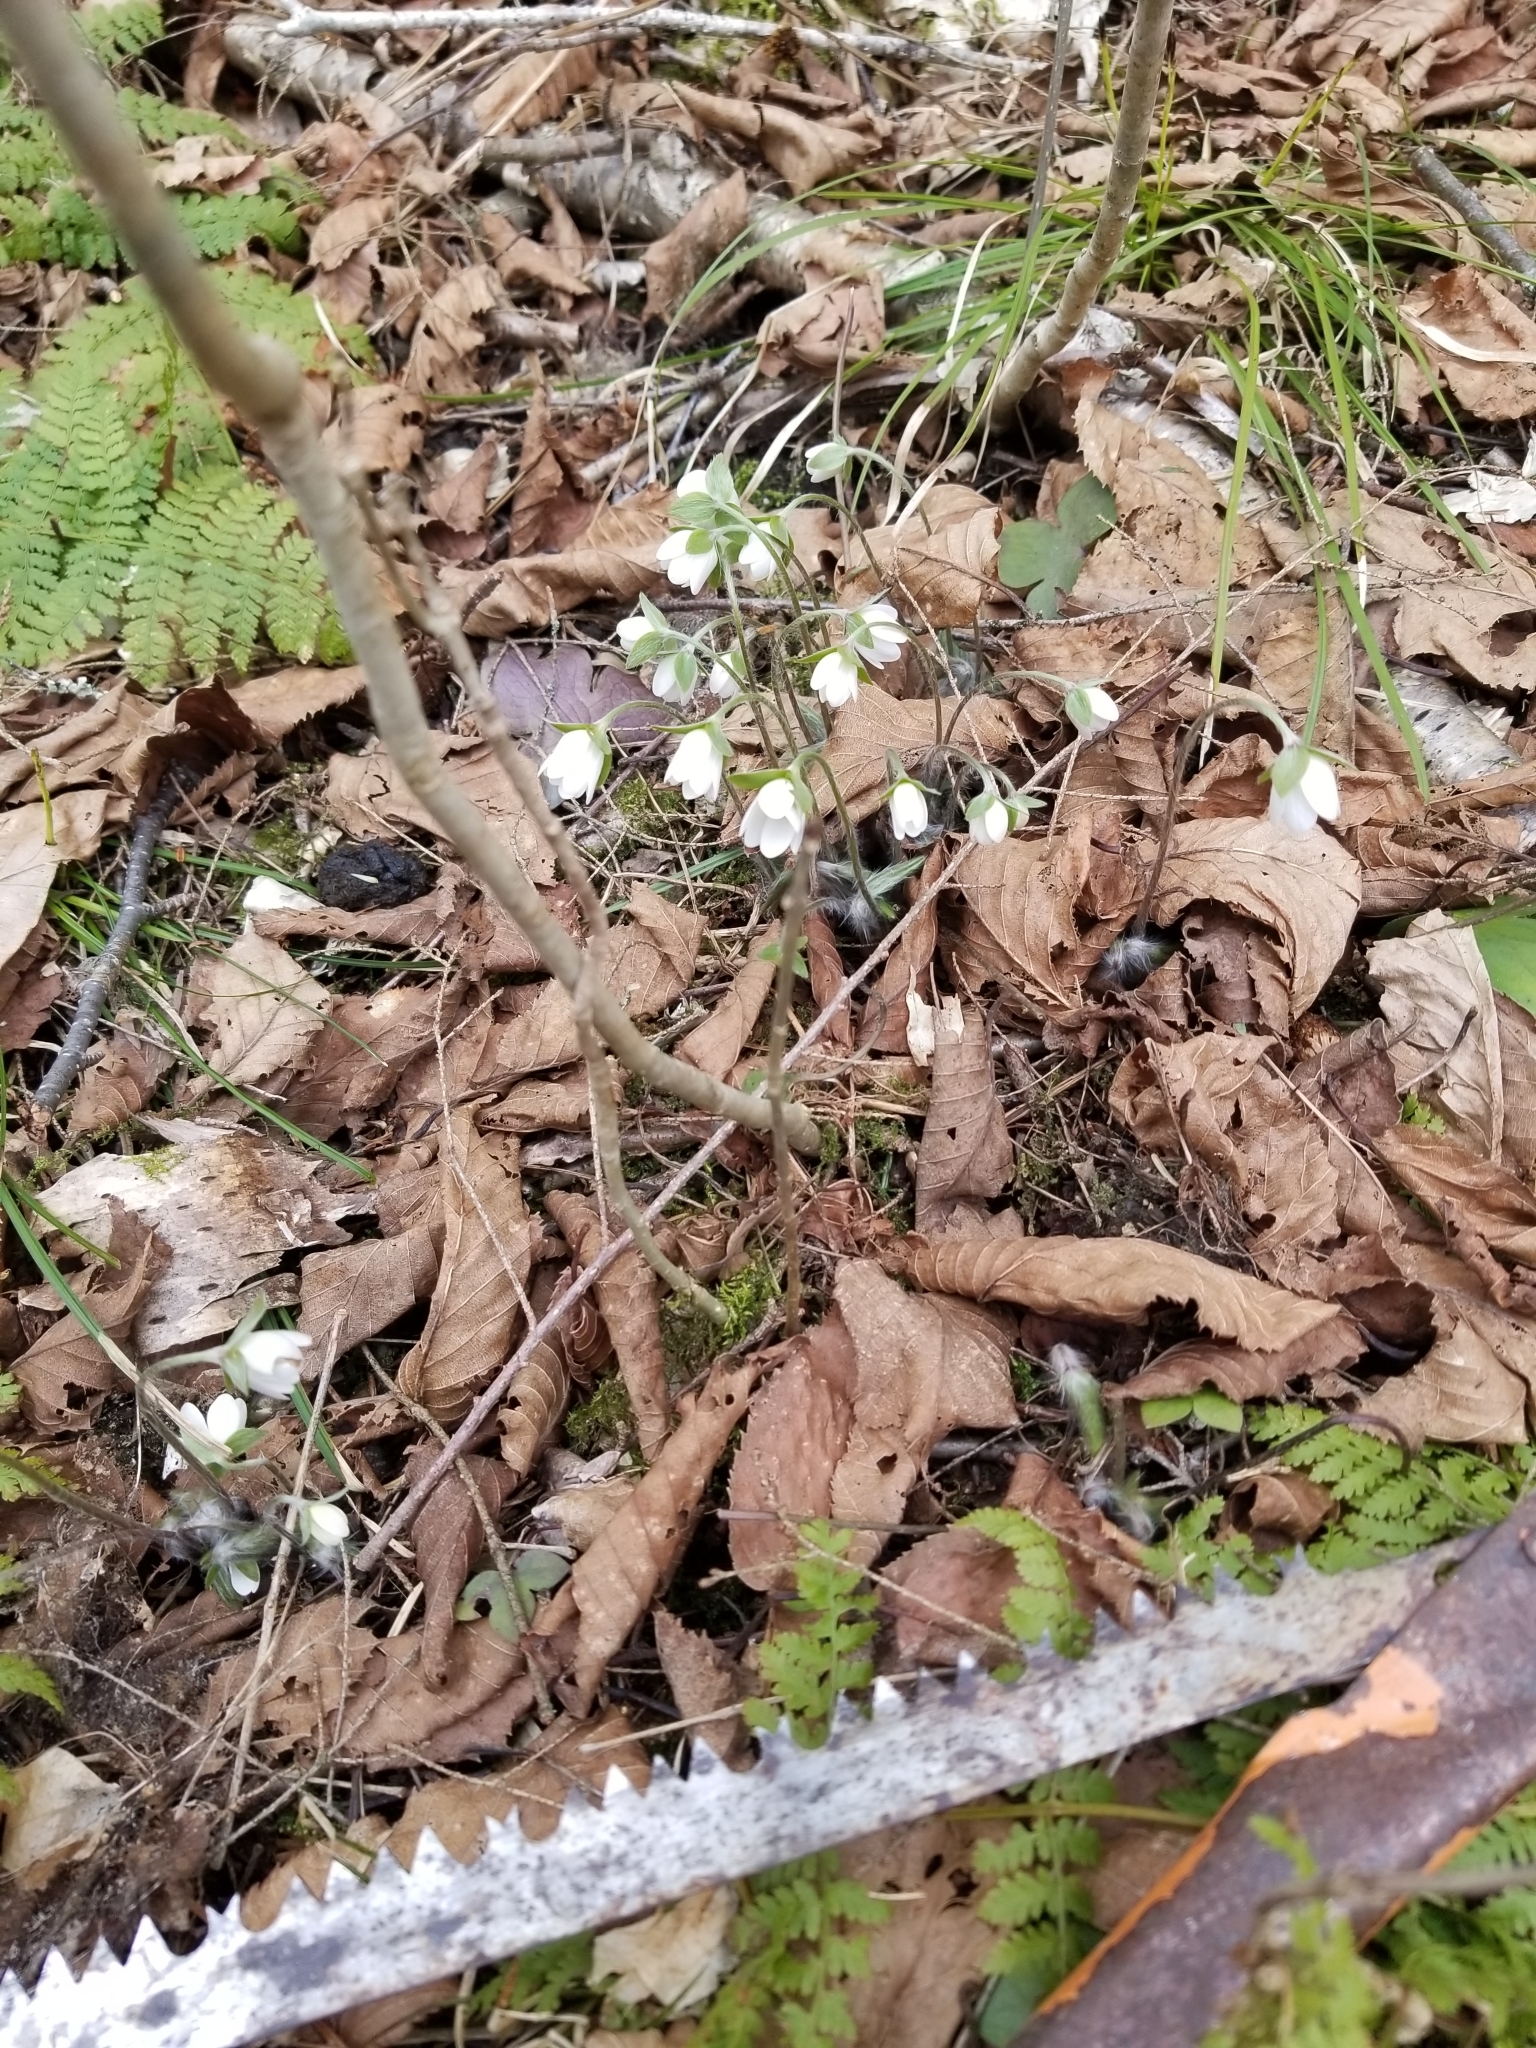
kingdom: Plantae
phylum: Tracheophyta
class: Magnoliopsida
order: Ranunculales
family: Ranunculaceae
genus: Hepatica
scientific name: Hepatica acutiloba
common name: Sharp-lobed hepatica
